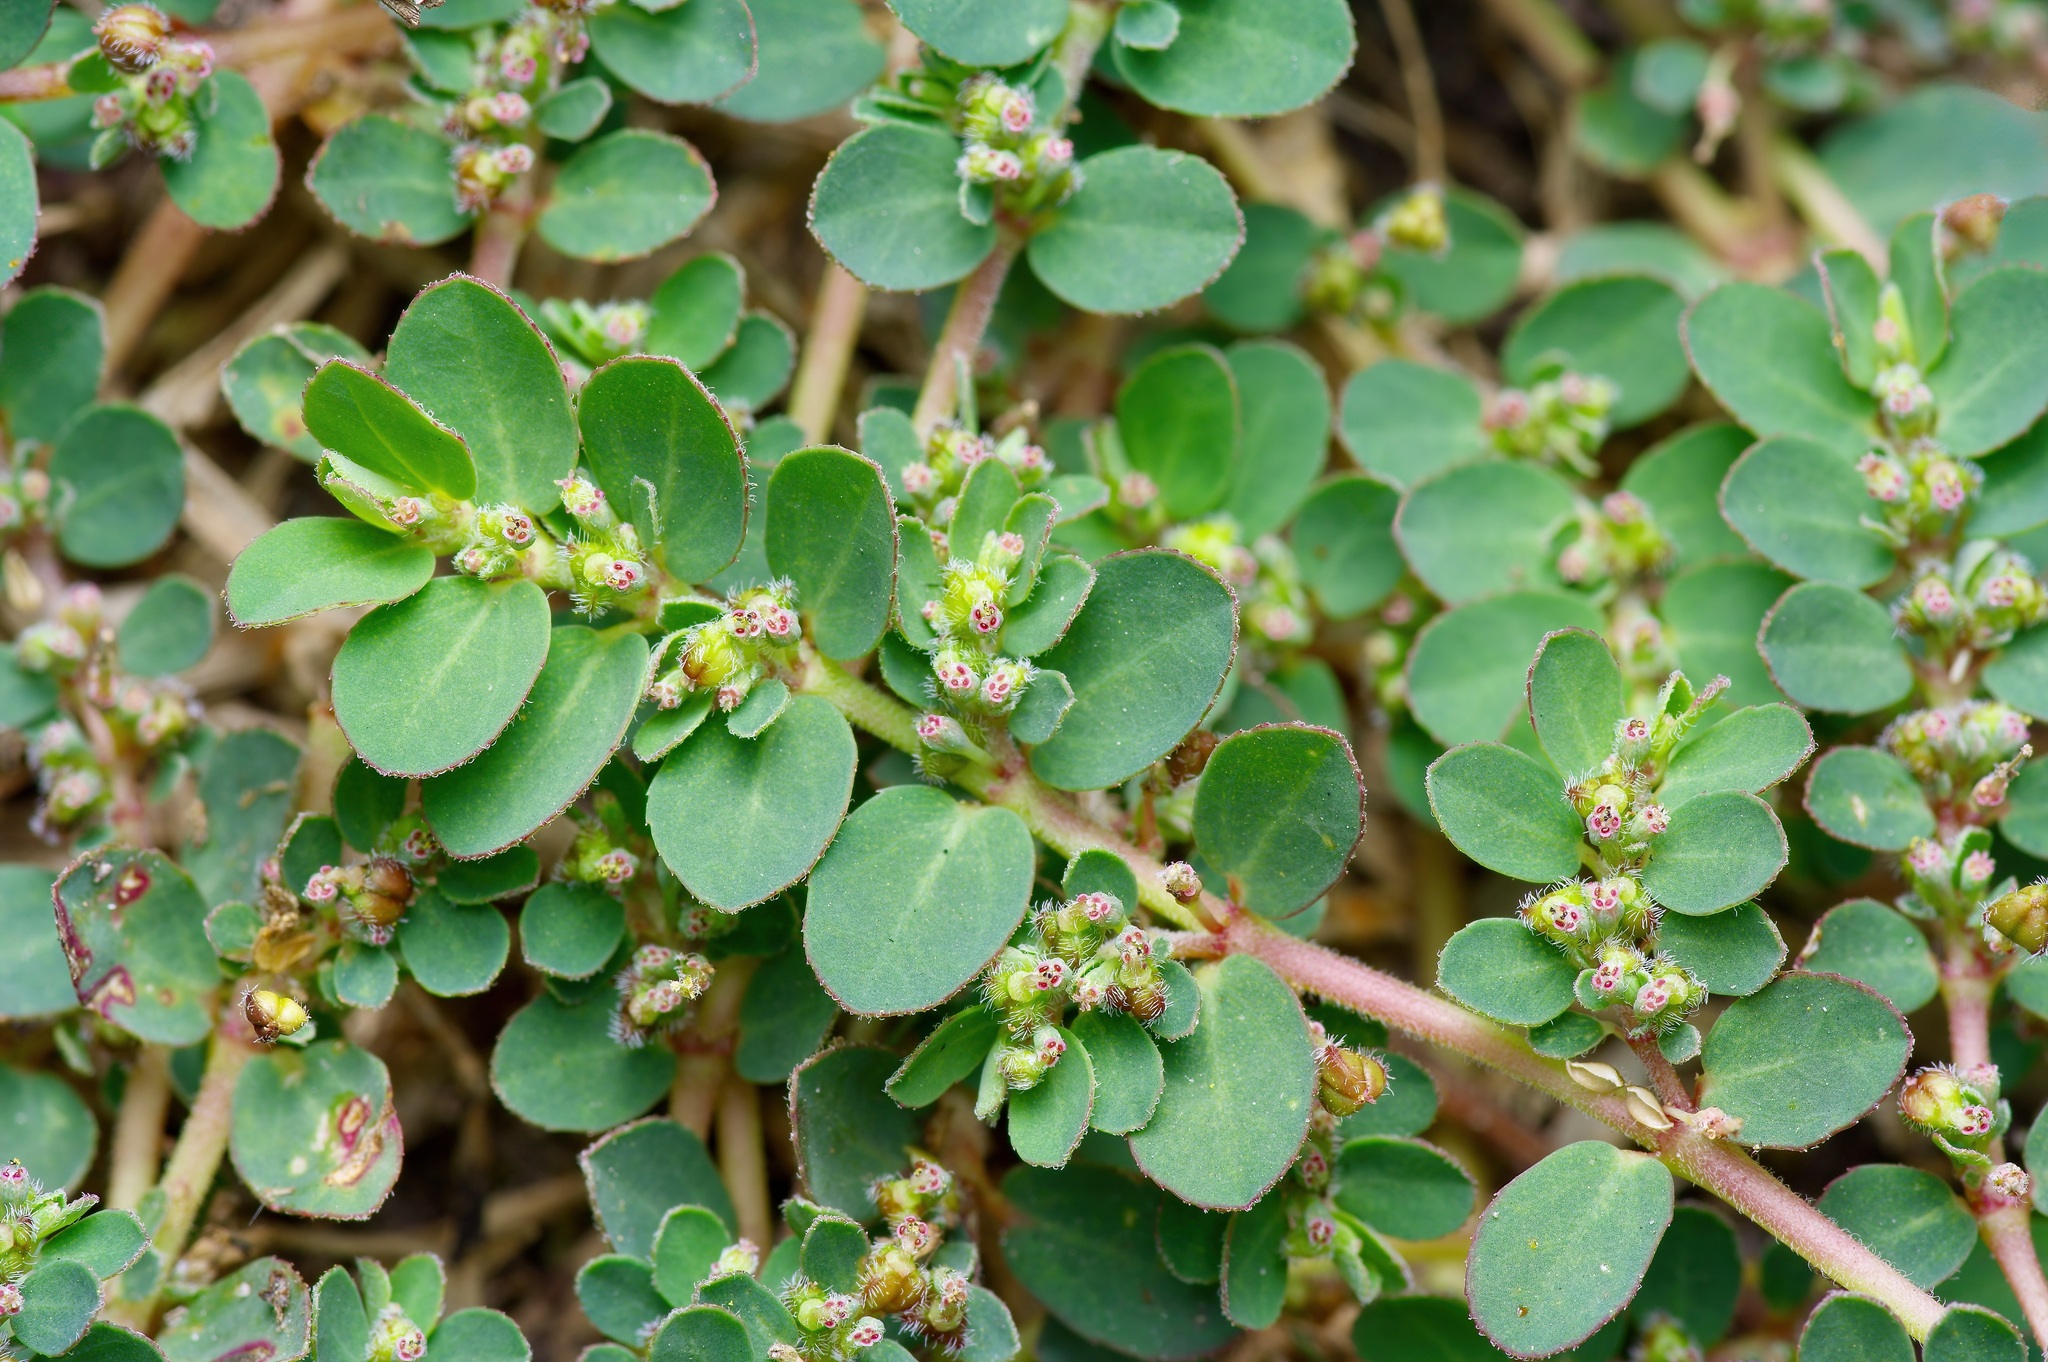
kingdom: Plantae
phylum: Tracheophyta
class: Magnoliopsida
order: Malpighiales
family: Euphorbiaceae
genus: Euphorbia
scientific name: Euphorbia prostrata
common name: Prostrate sandmat
